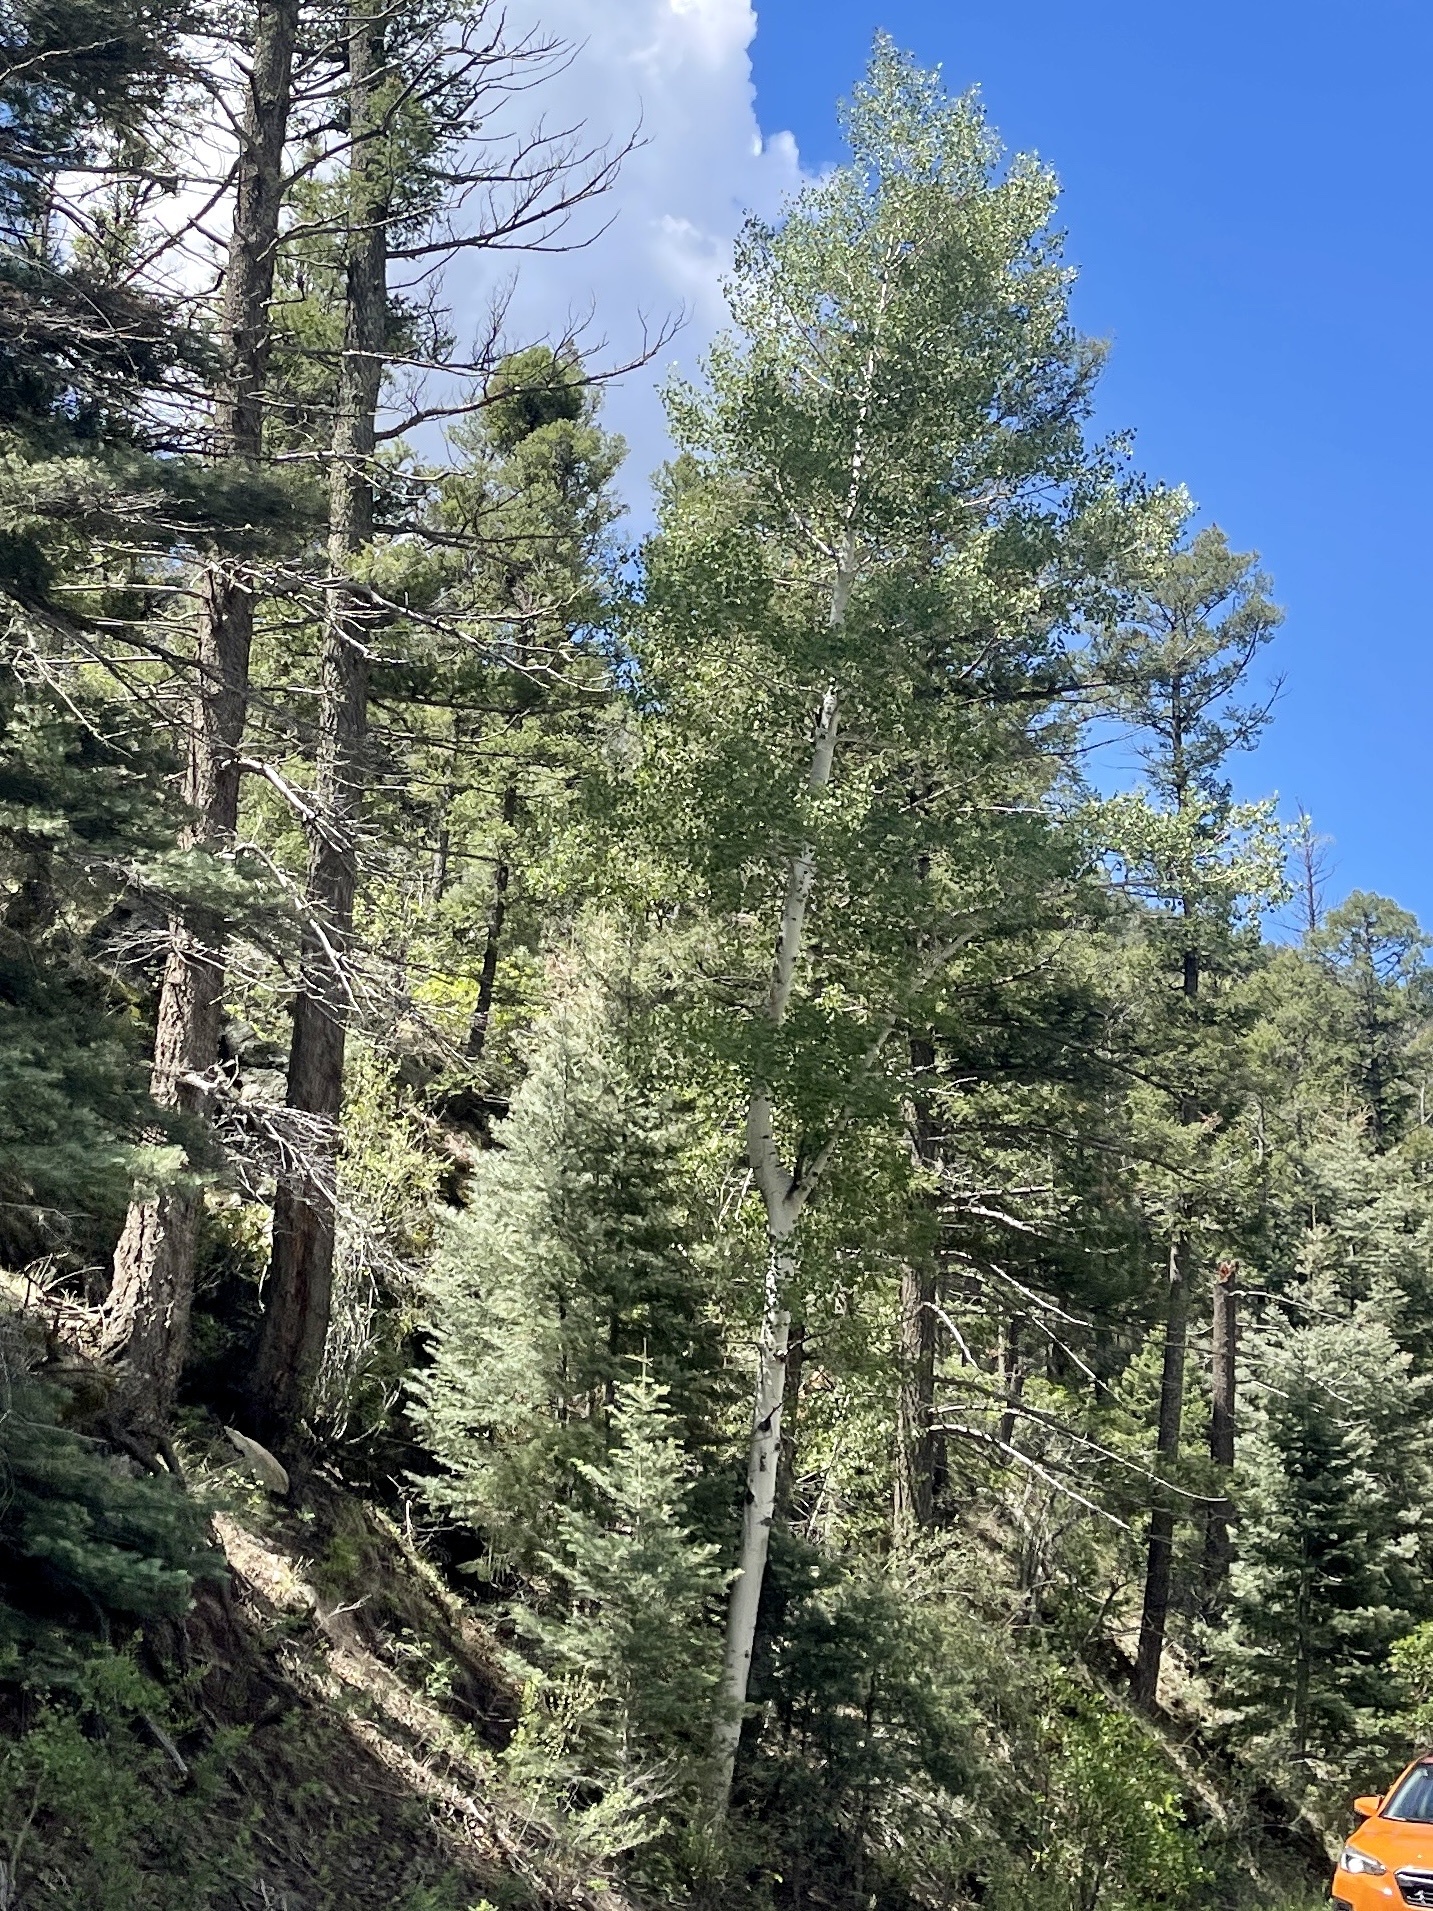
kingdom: Plantae
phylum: Tracheophyta
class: Magnoliopsida
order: Malpighiales
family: Salicaceae
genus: Populus
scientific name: Populus tremuloides
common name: Quaking aspen
